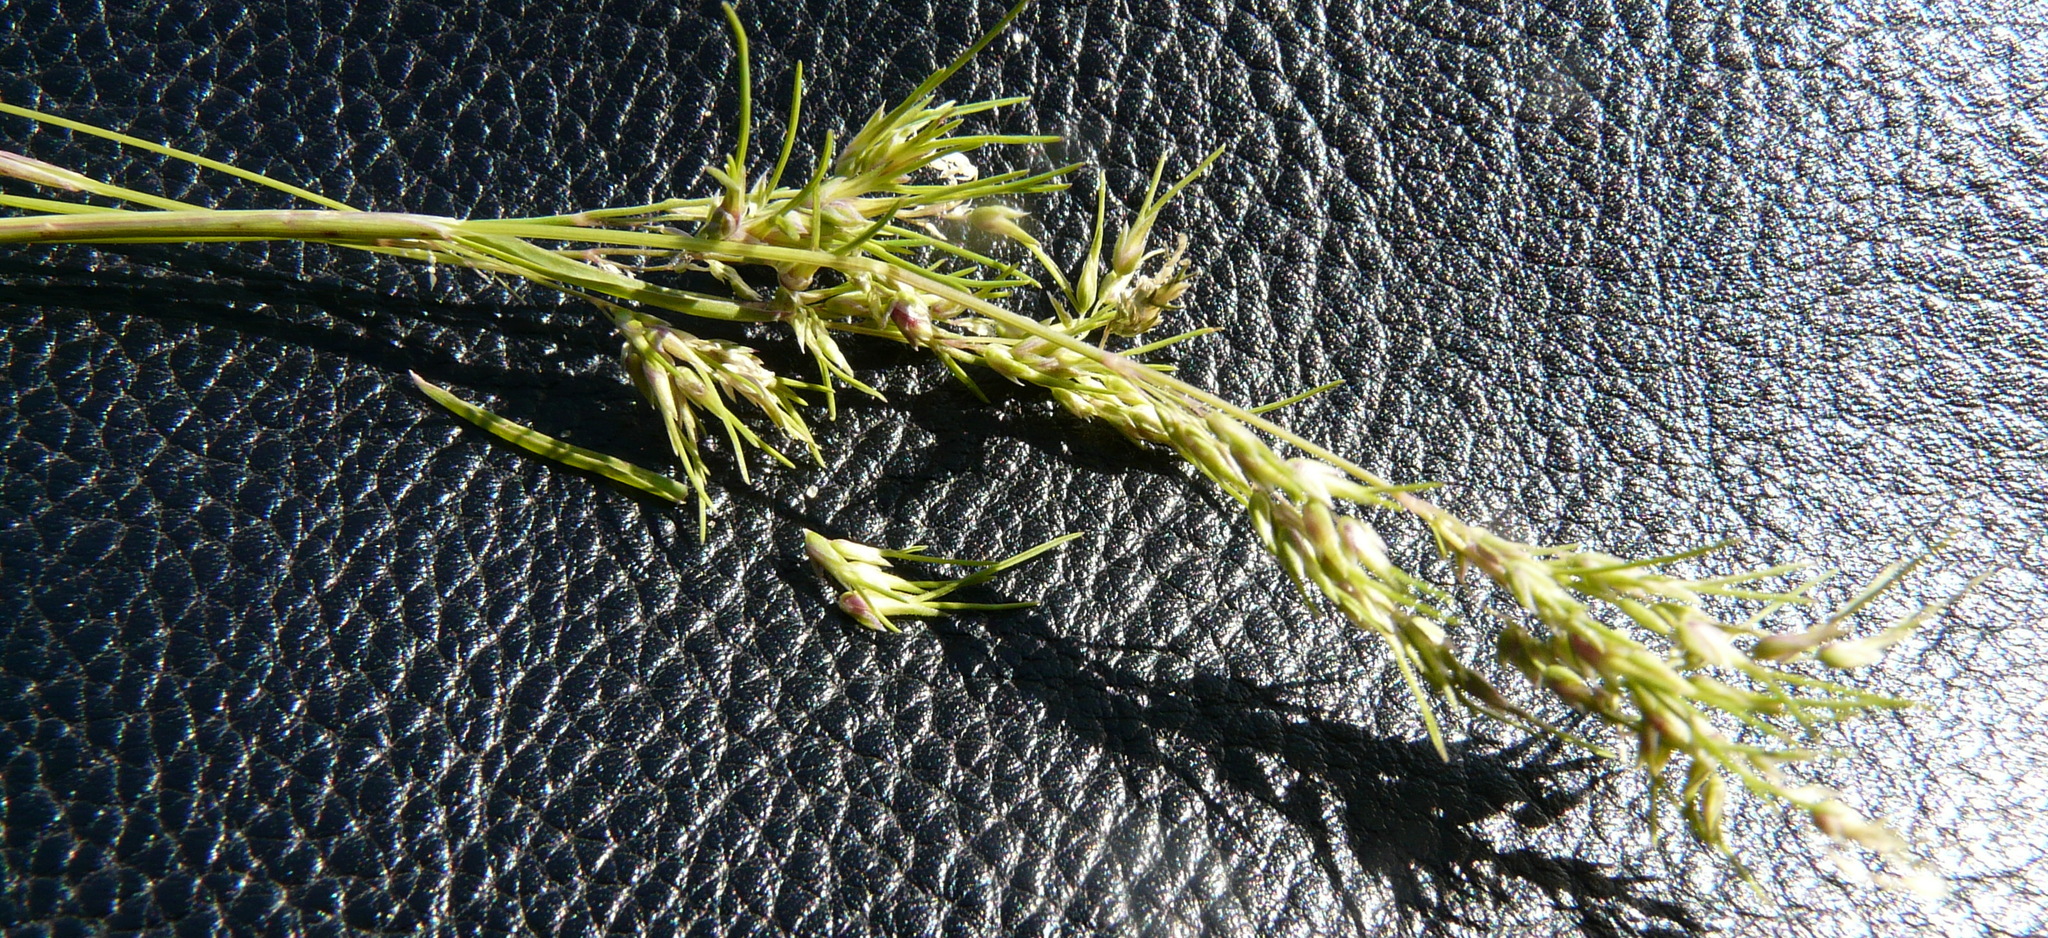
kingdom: Plantae
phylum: Tracheophyta
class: Liliopsida
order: Poales
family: Poaceae
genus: Poa
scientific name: Poa bulbosa
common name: Bulbous bluegrass
